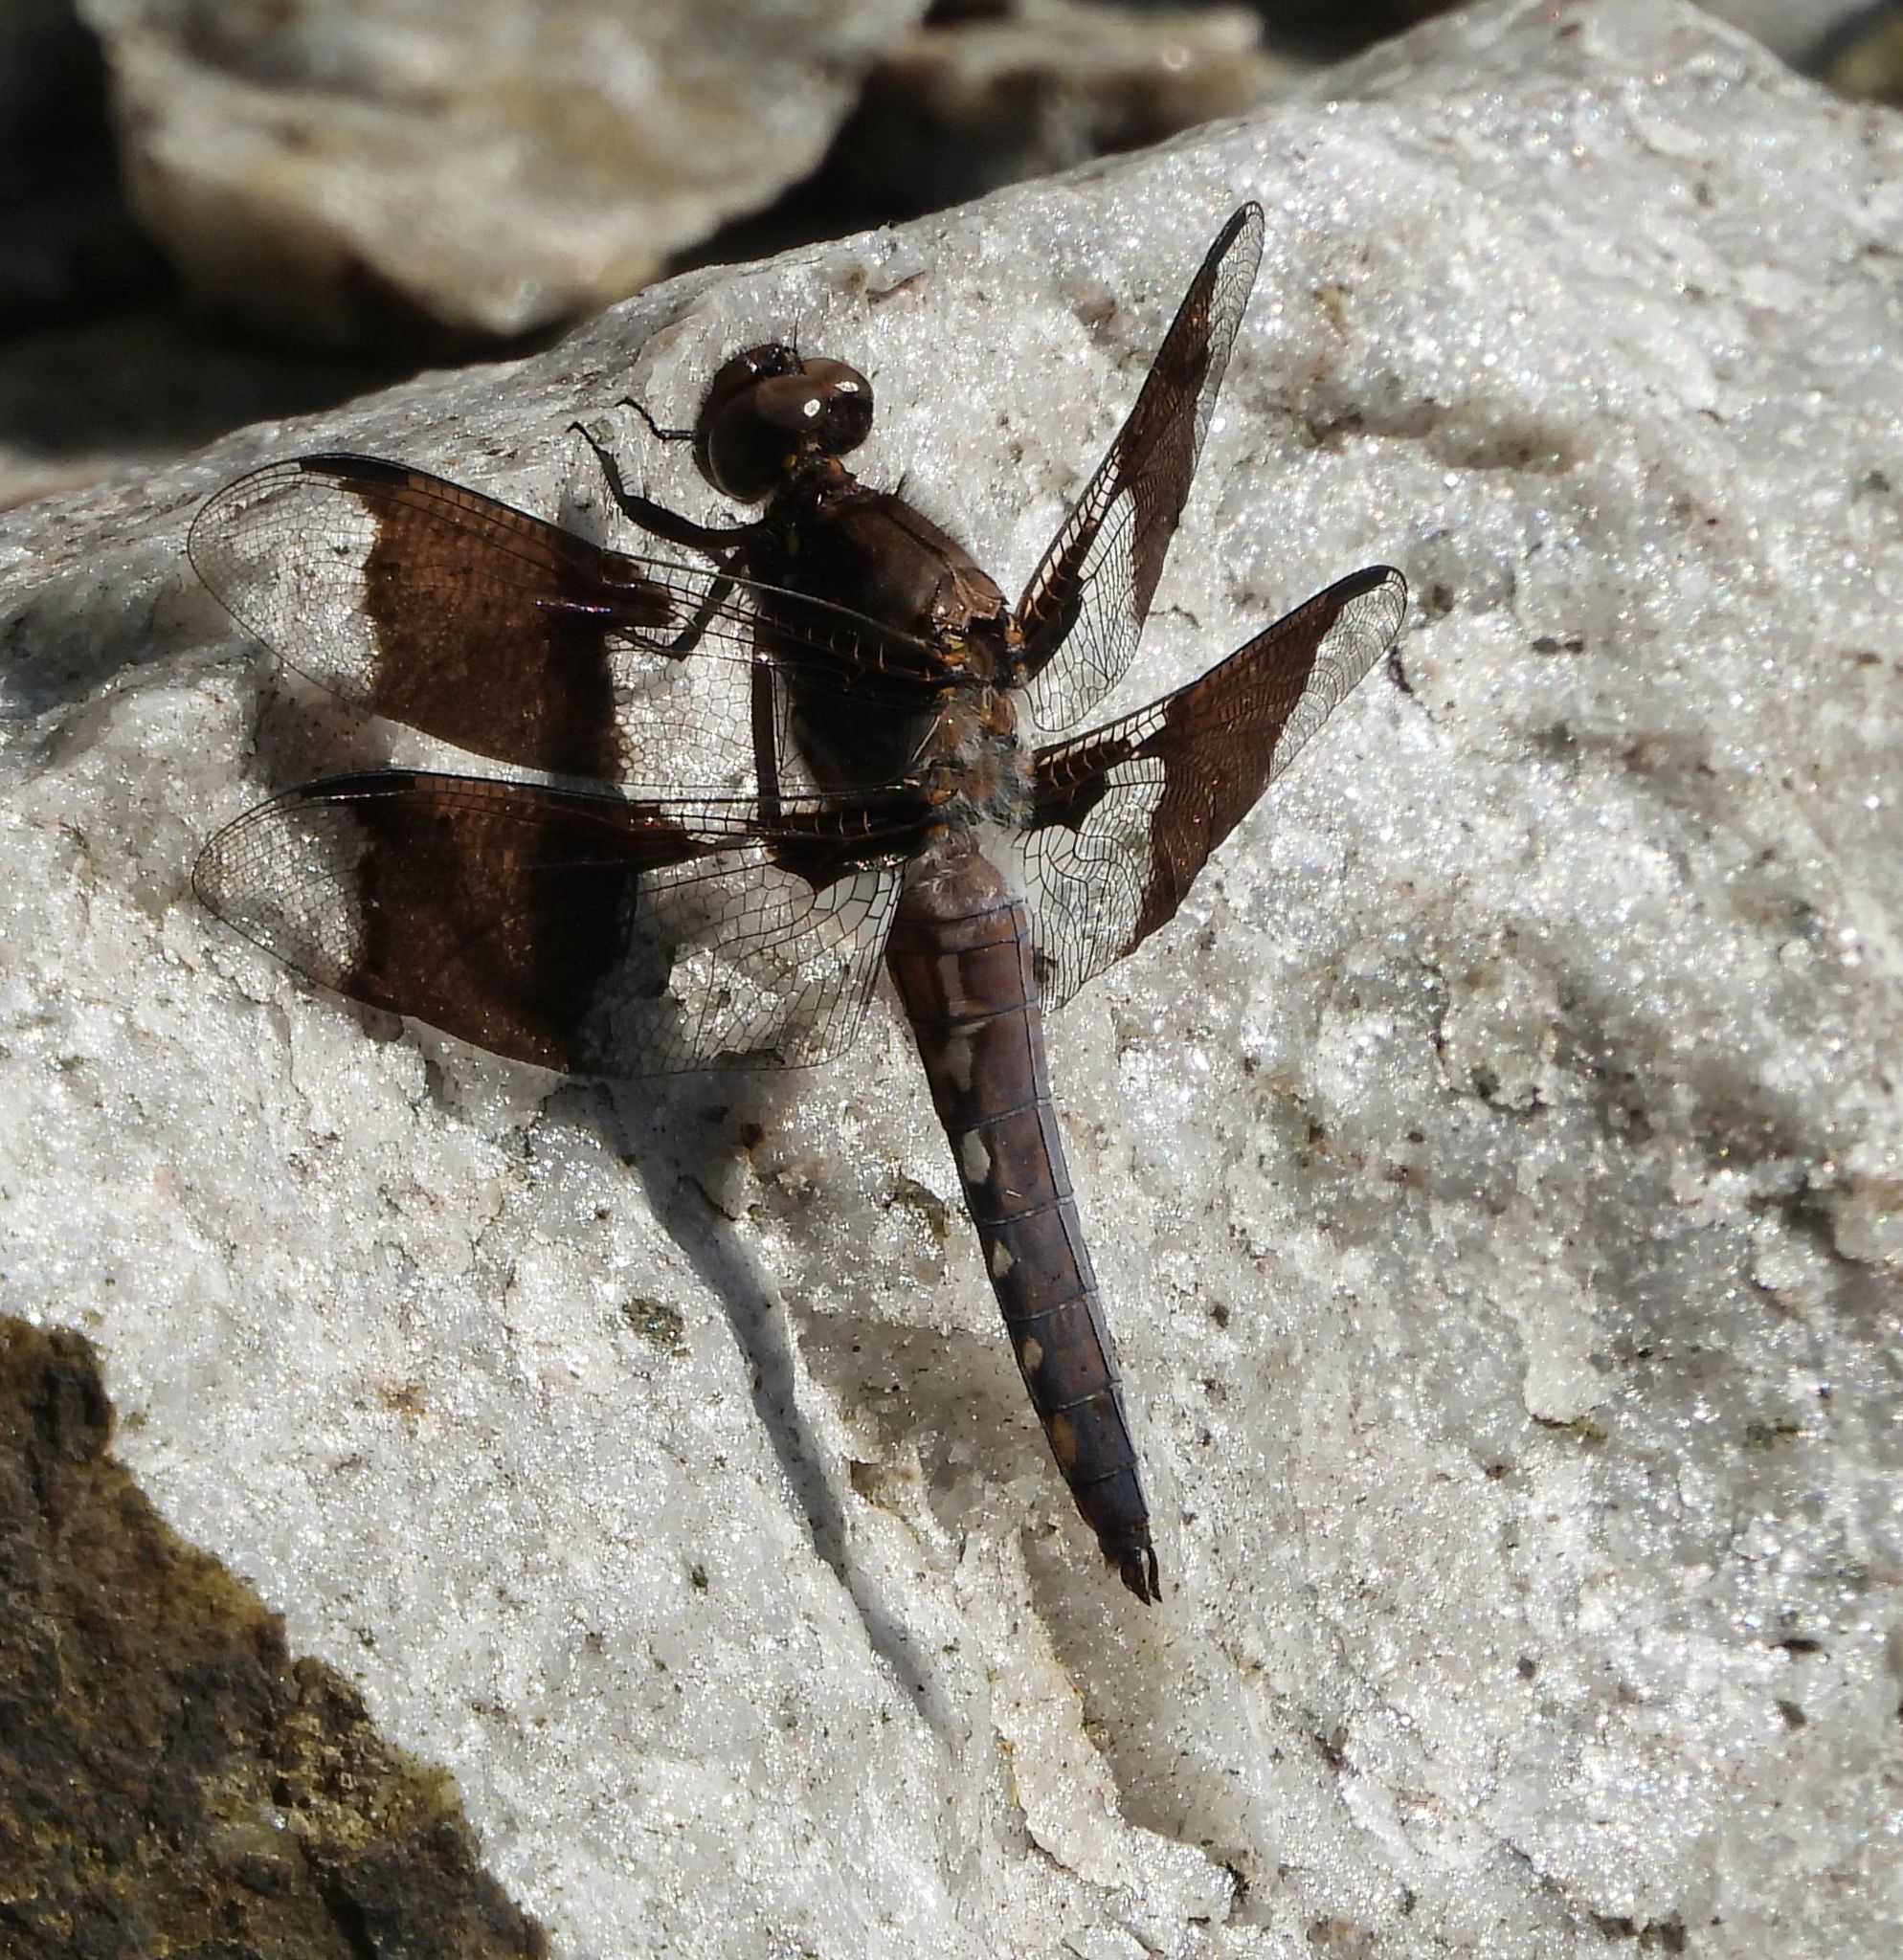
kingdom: Animalia
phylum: Arthropoda
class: Insecta
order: Odonata
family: Libellulidae
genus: Plathemis
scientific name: Plathemis lydia
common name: Common whitetail
